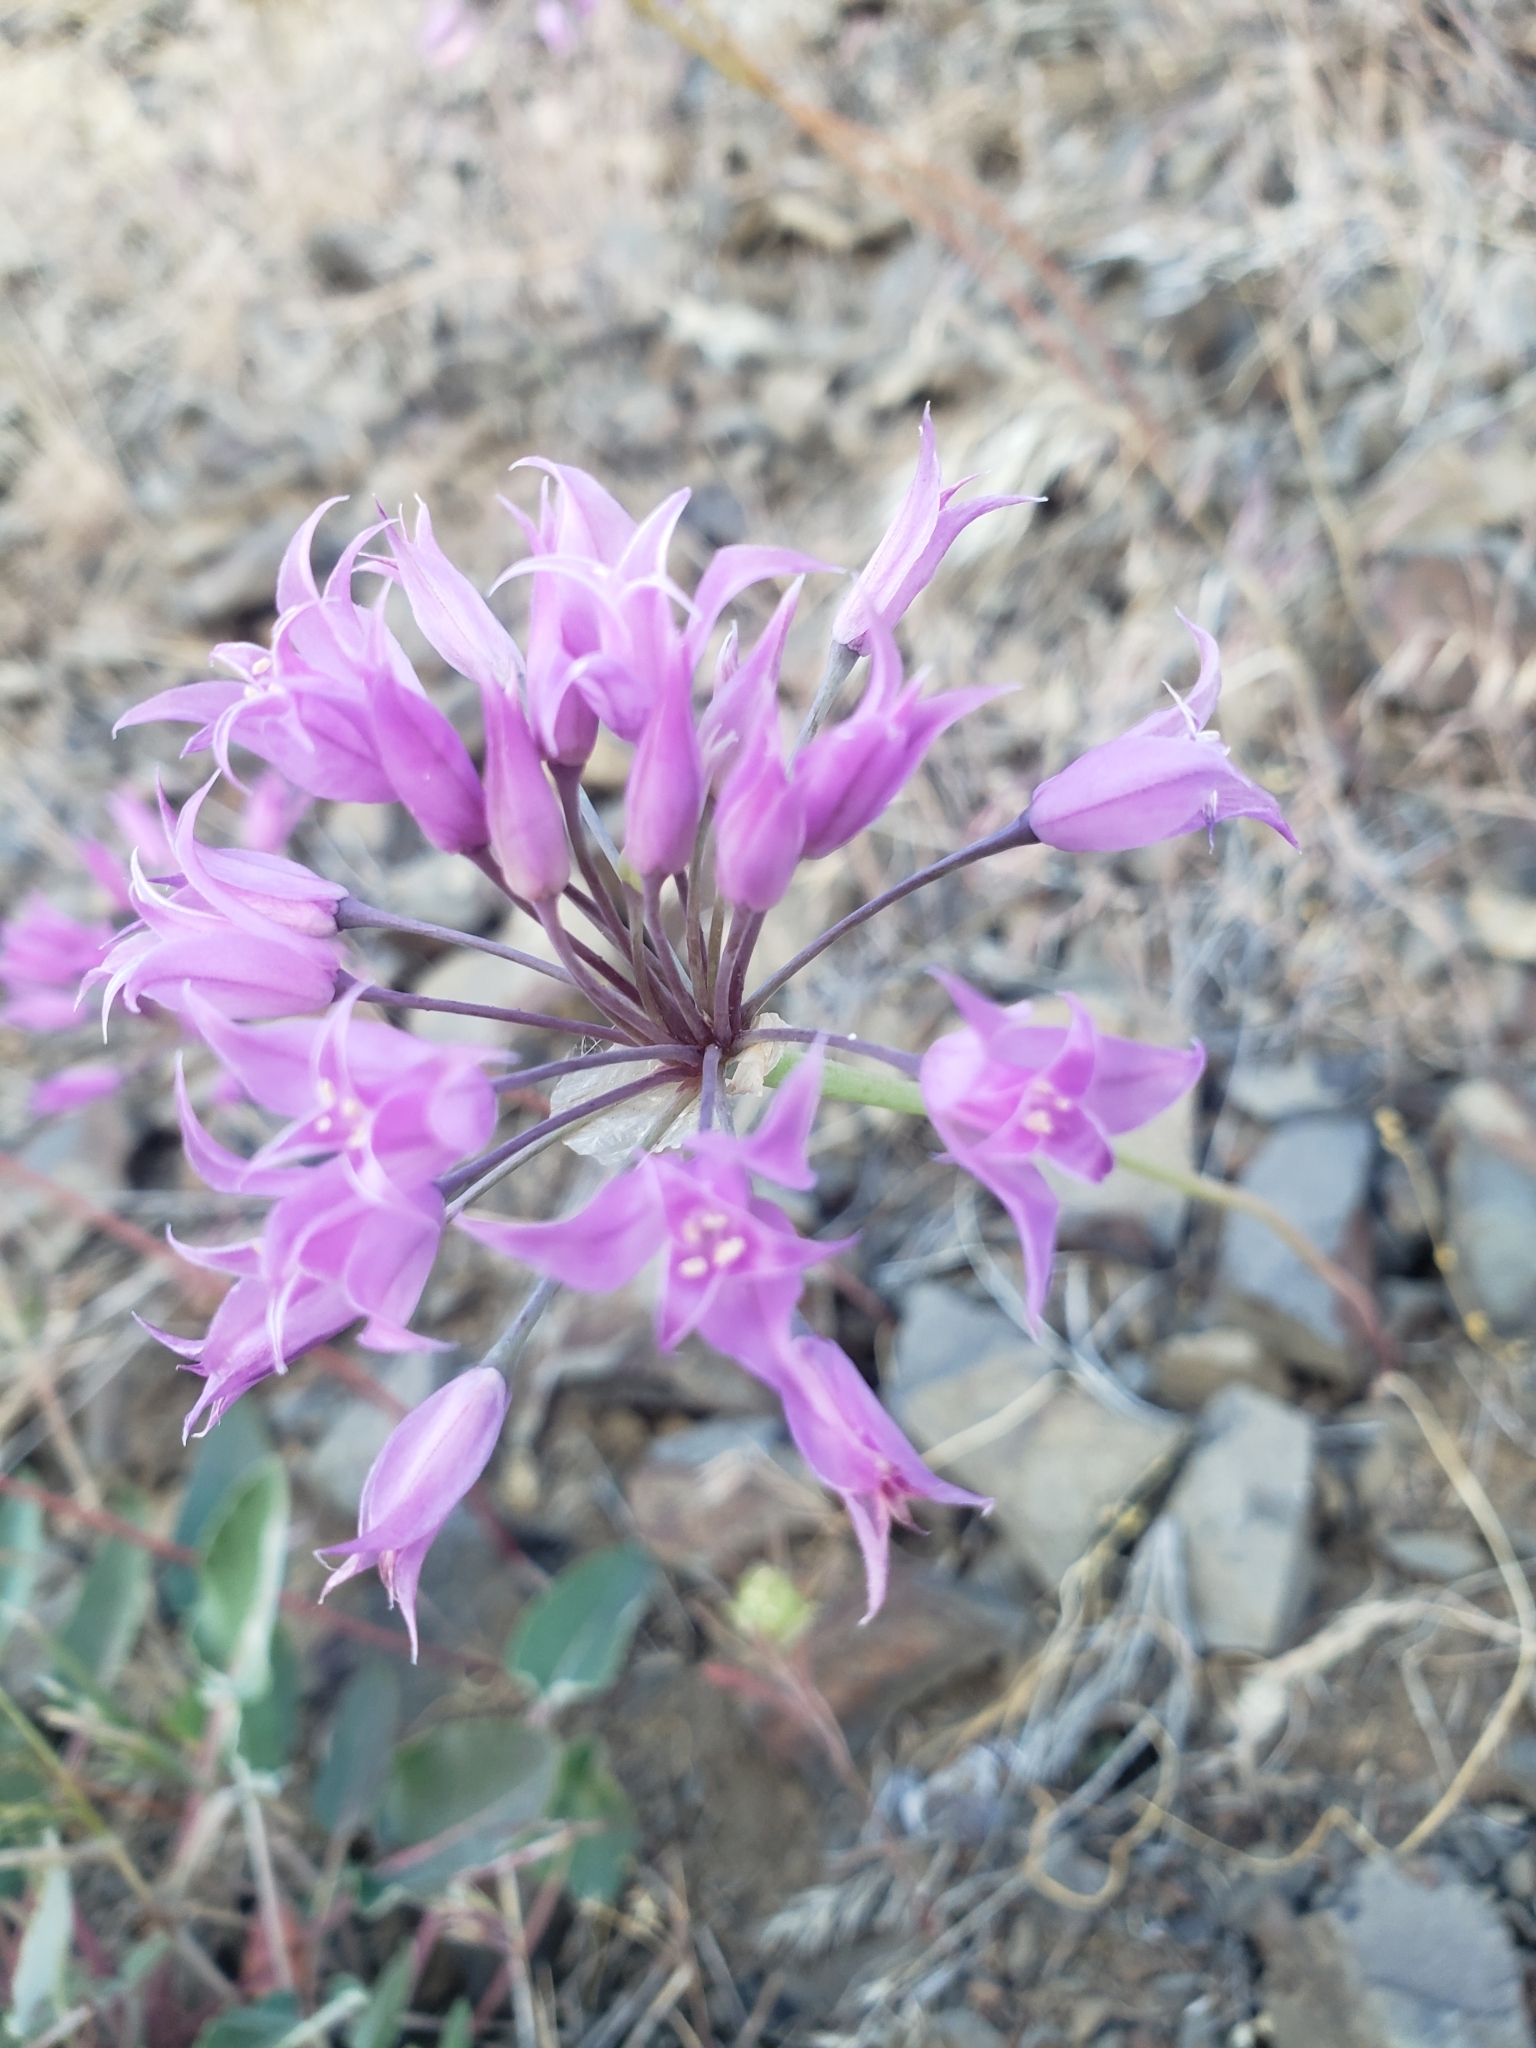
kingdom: Plantae
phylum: Tracheophyta
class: Liliopsida
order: Asparagales
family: Amaryllidaceae
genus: Allium
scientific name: Allium acuminatum
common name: Hooker's onion
